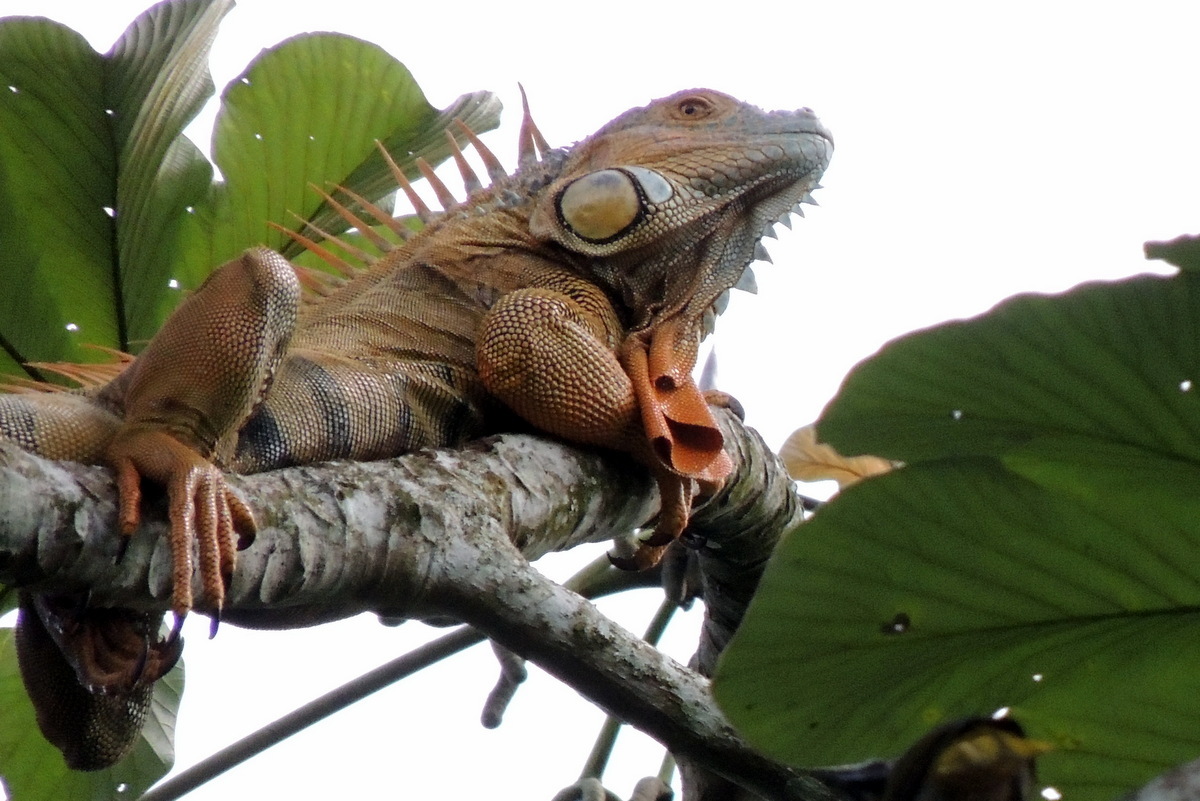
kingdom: Animalia
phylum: Chordata
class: Squamata
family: Iguanidae
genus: Iguana
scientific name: Iguana iguana
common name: Green iguana
